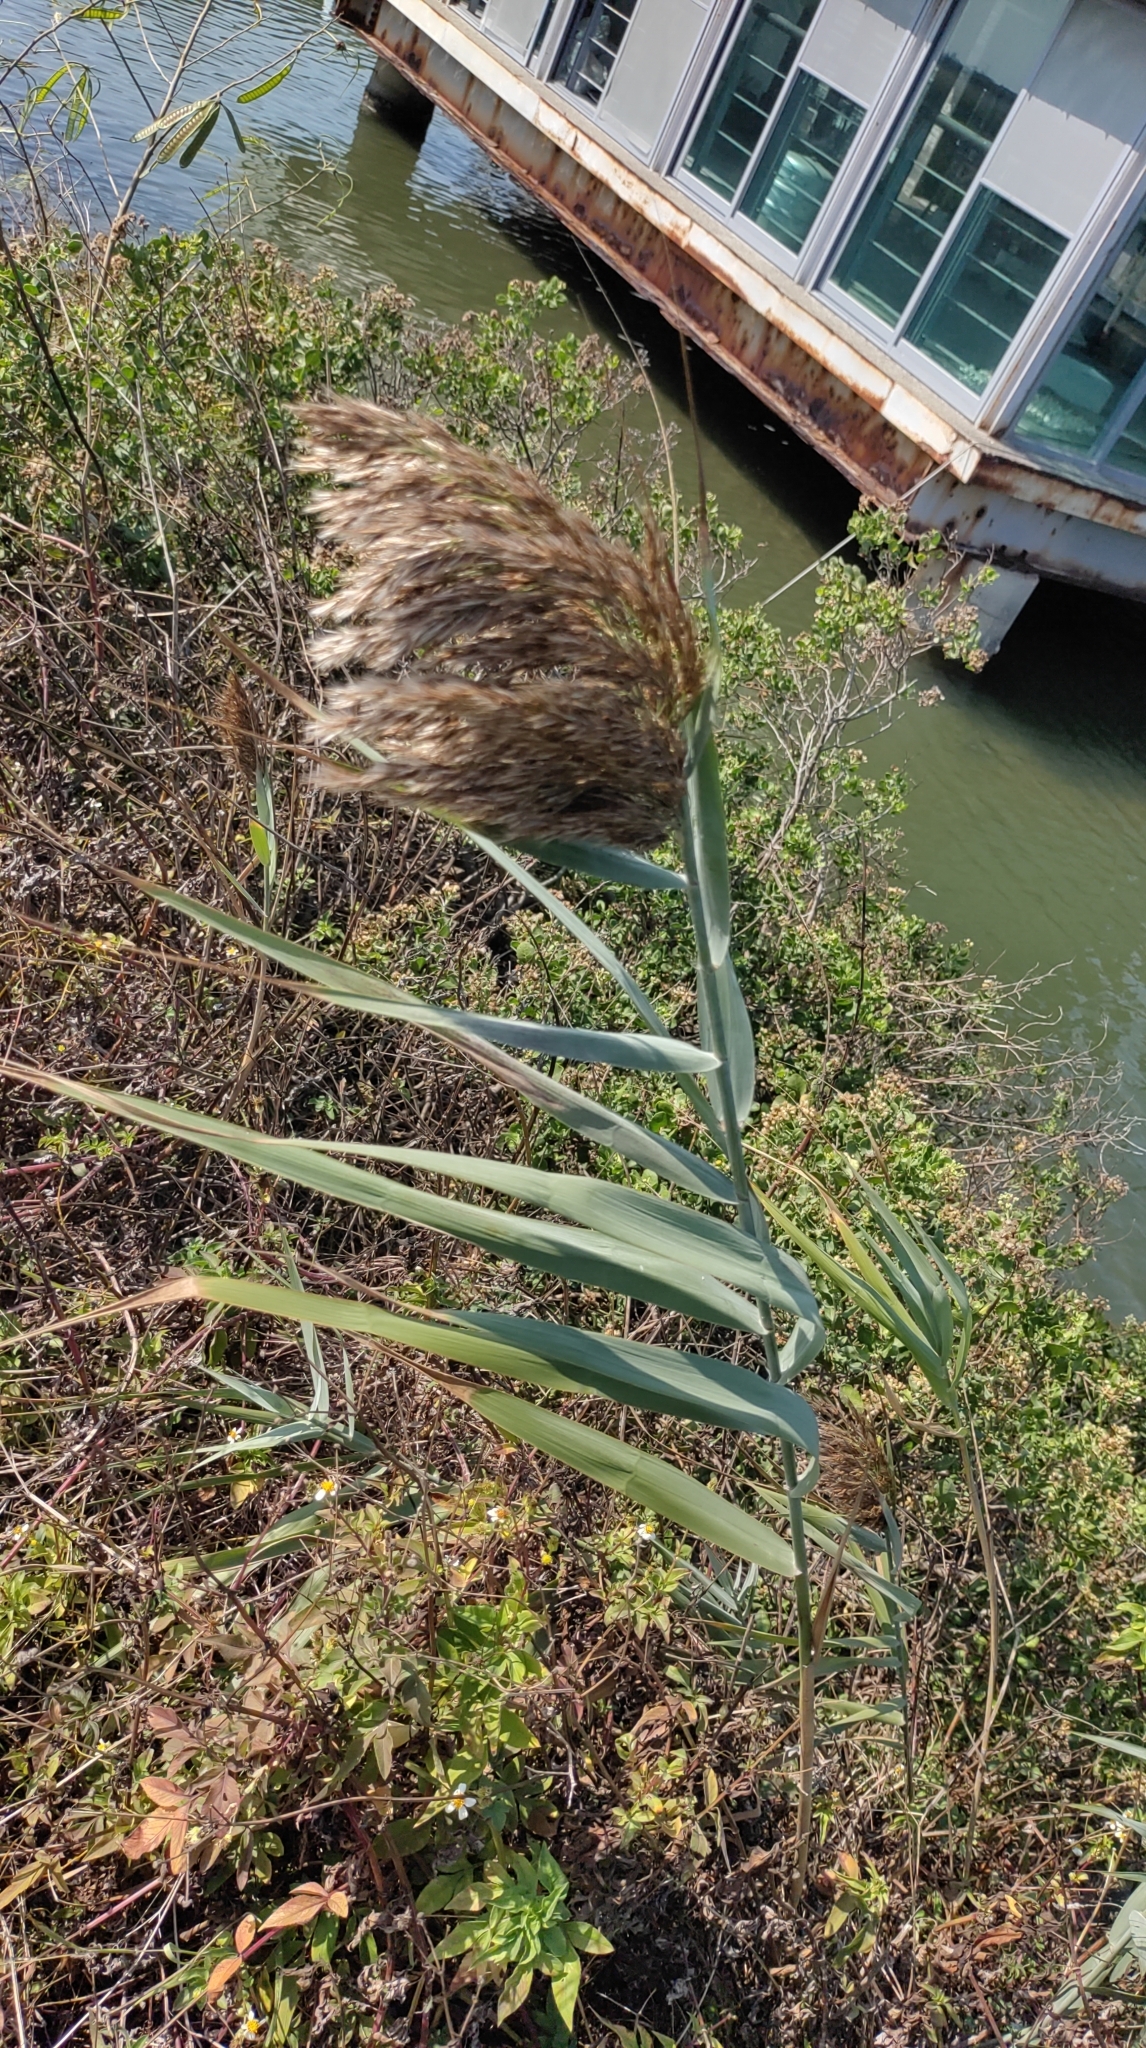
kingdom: Plantae
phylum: Tracheophyta
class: Liliopsida
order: Poales
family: Poaceae
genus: Phragmites
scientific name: Phragmites australis
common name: Common reed
